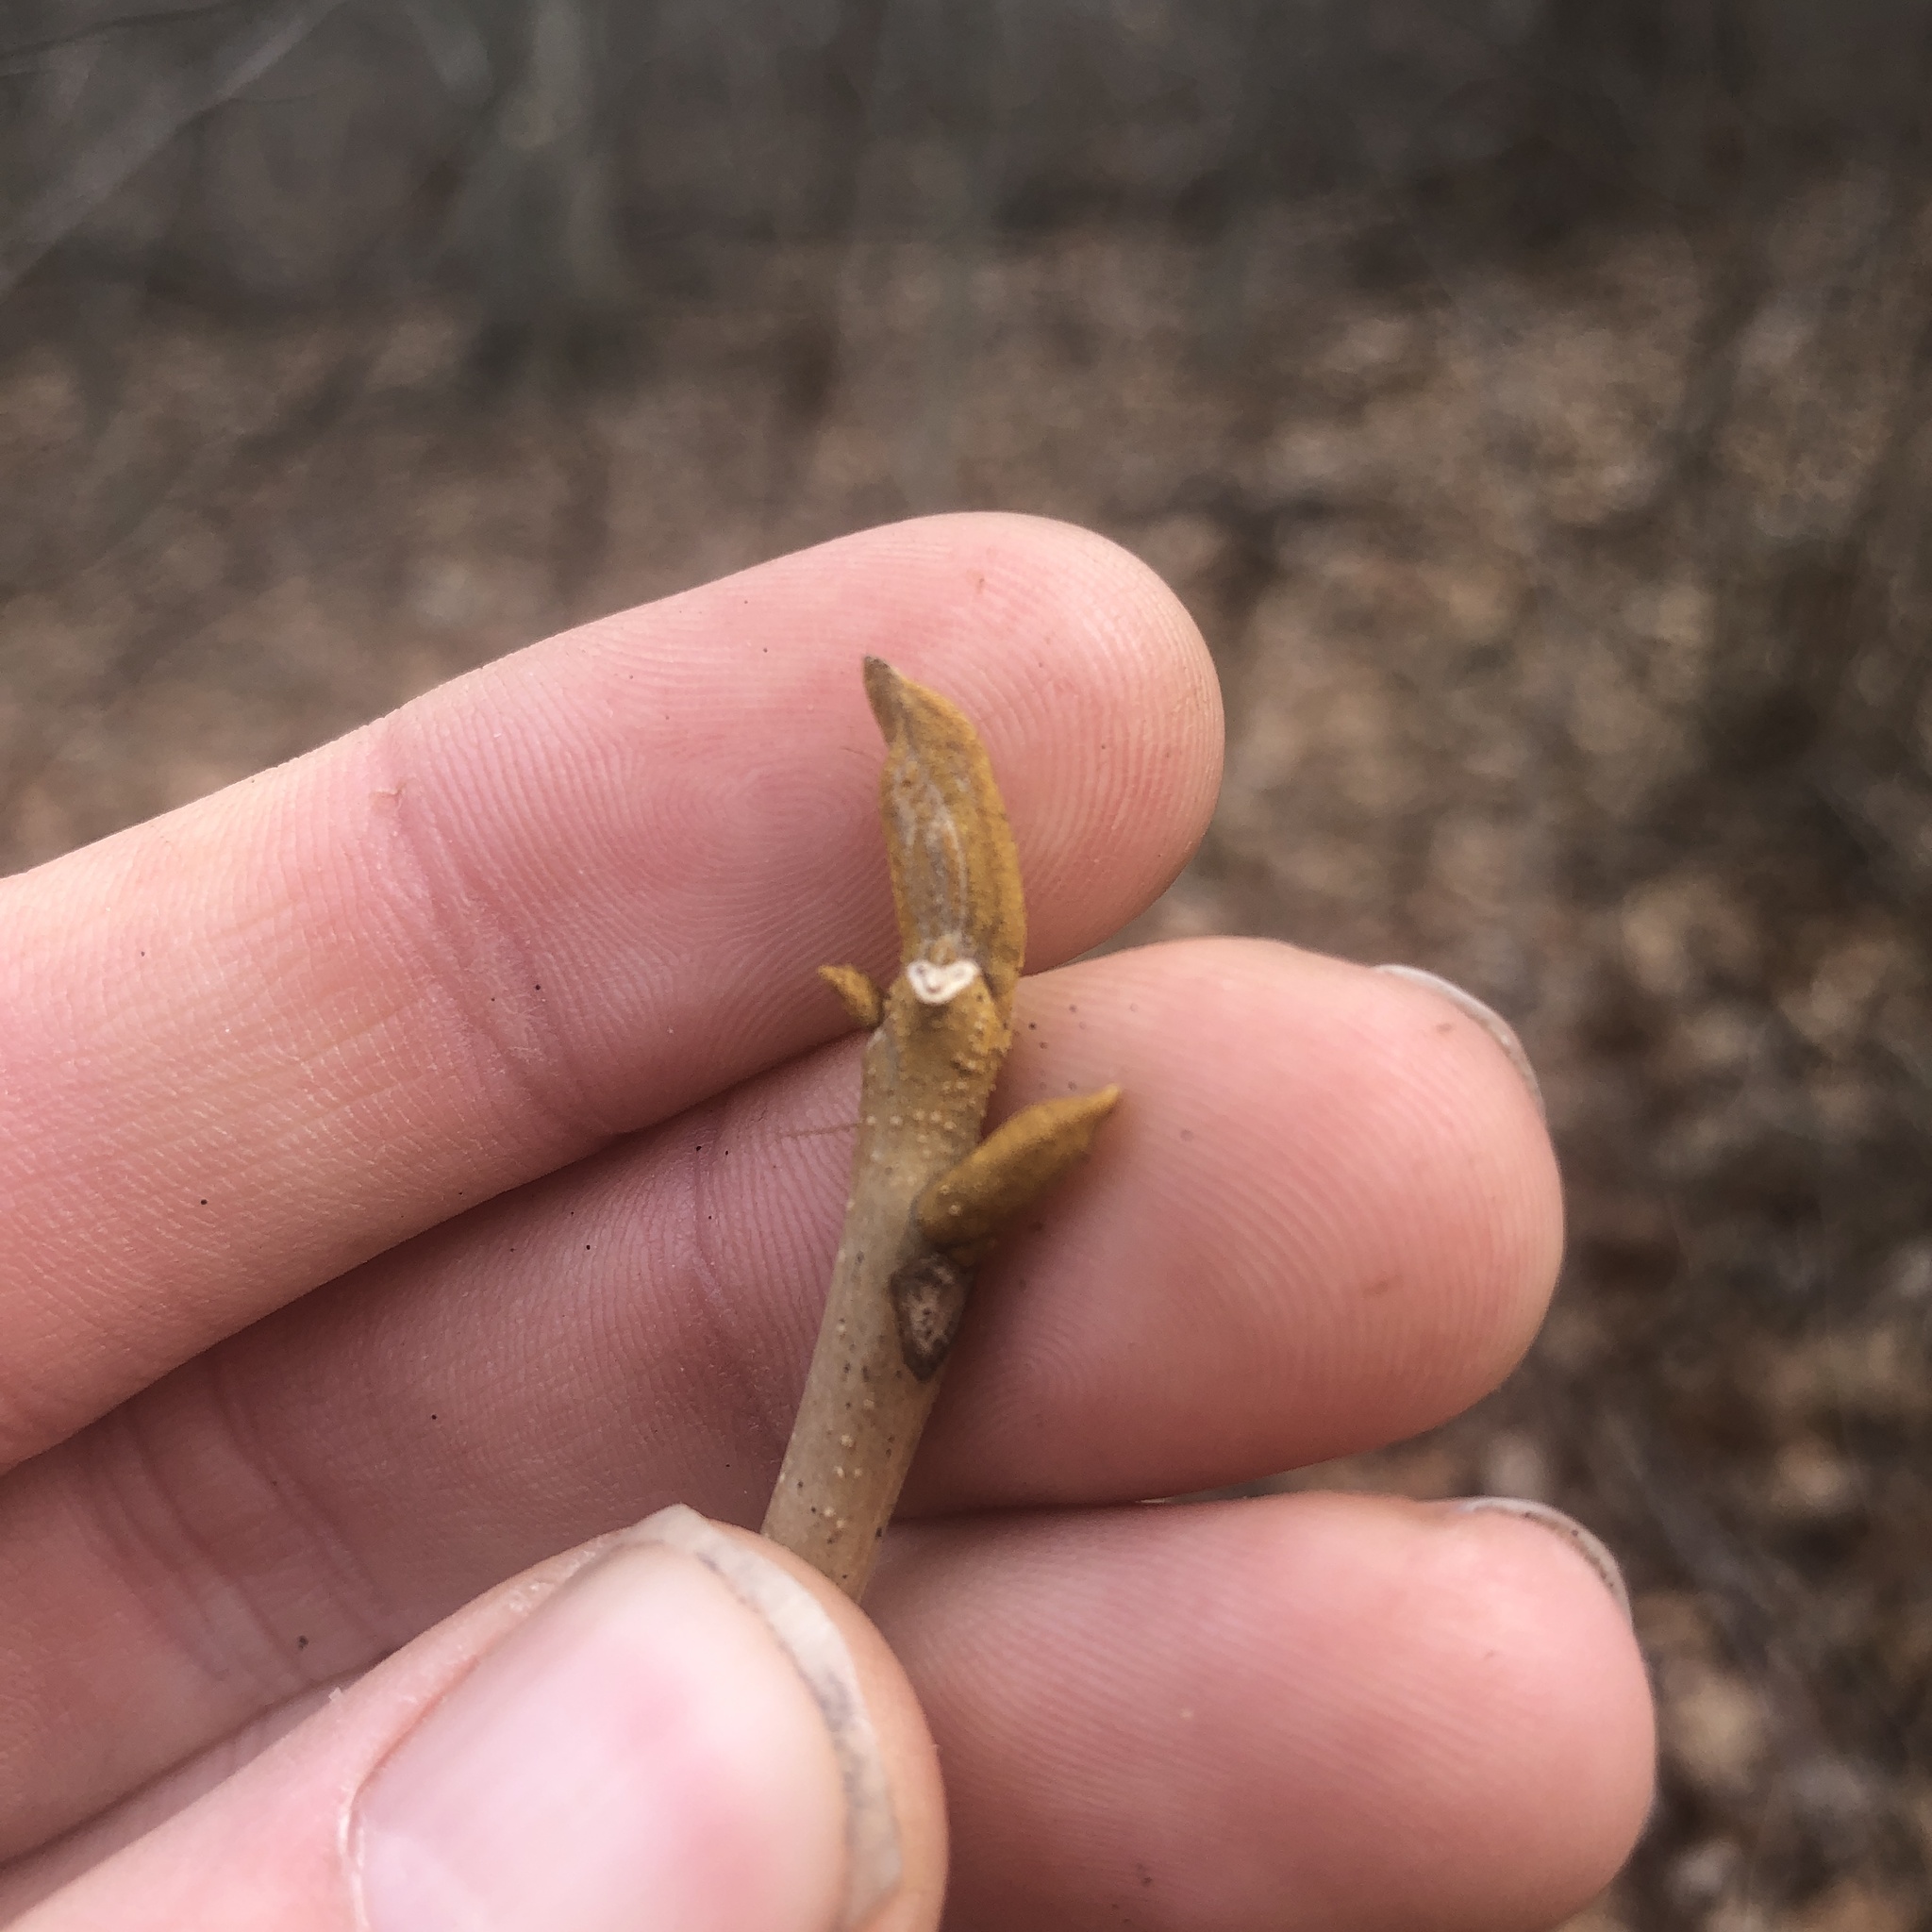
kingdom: Plantae
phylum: Tracheophyta
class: Magnoliopsida
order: Fagales
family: Juglandaceae
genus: Carya
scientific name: Carya cordiformis
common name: Bitternut hickory
